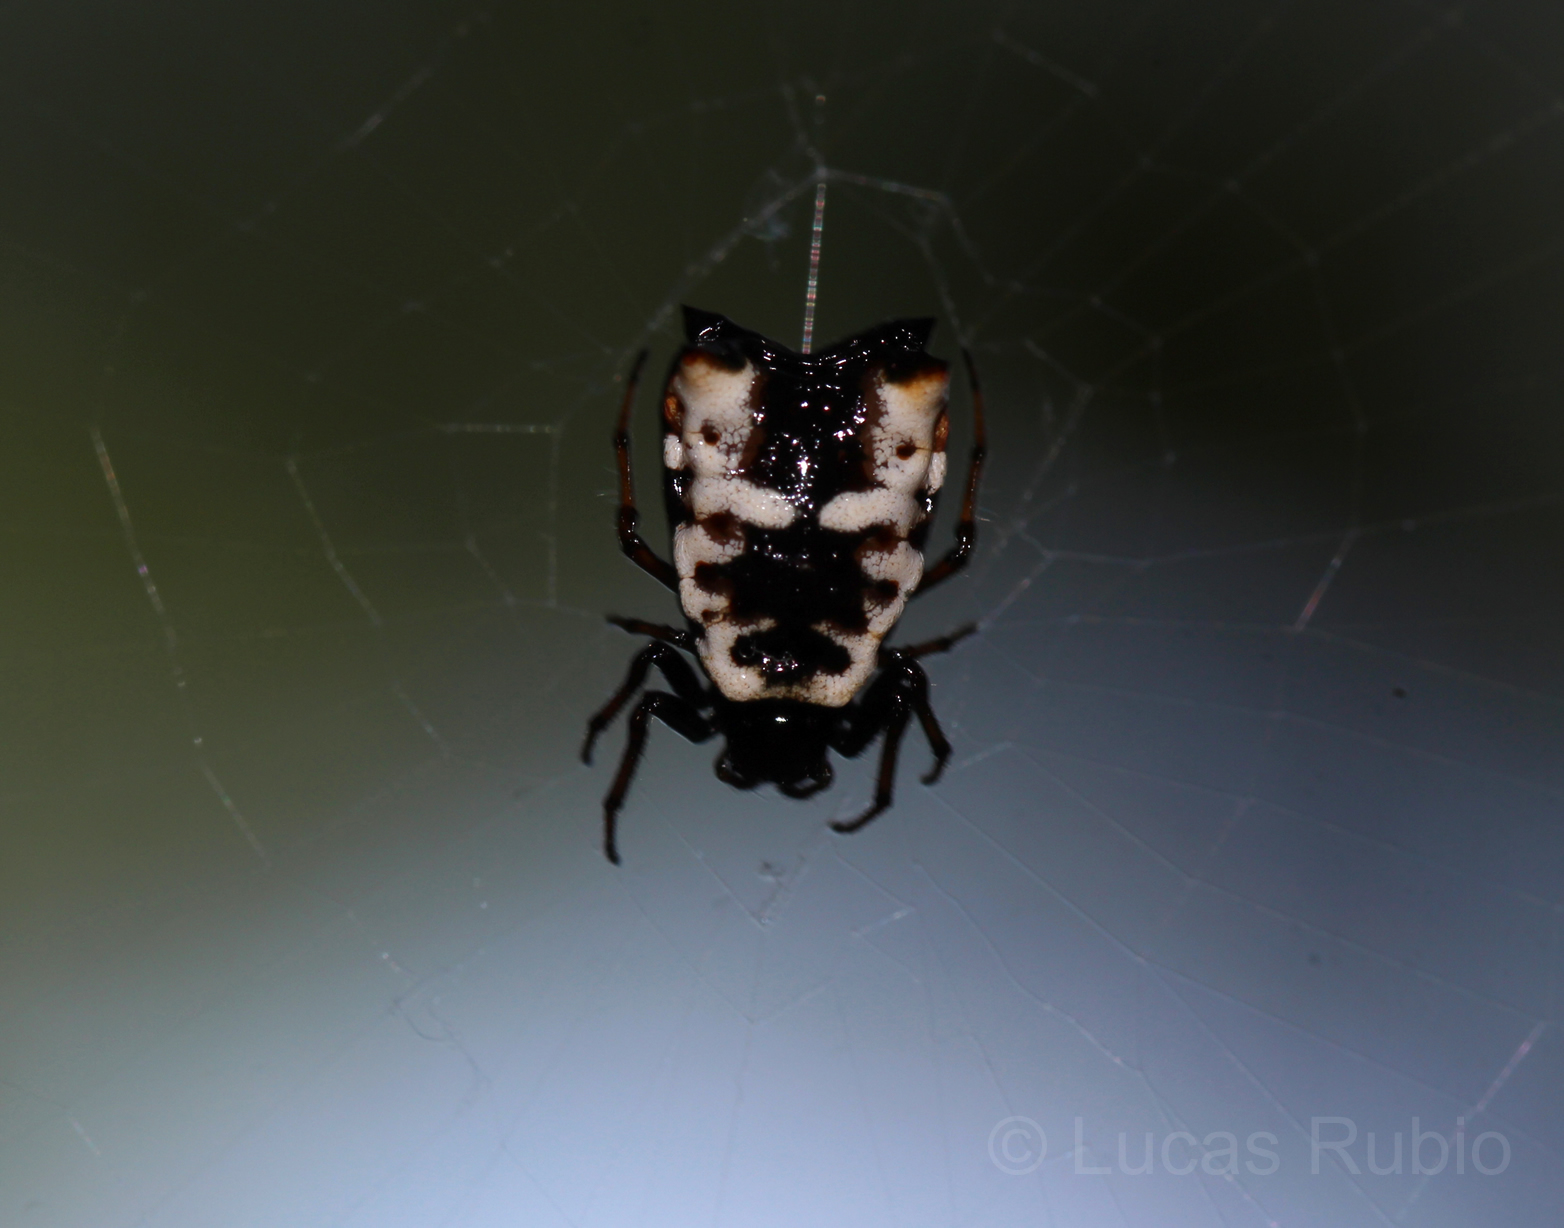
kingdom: Animalia
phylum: Arthropoda
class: Arachnida
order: Araneae
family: Araneidae
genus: Micrathena
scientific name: Micrathena patruelis
